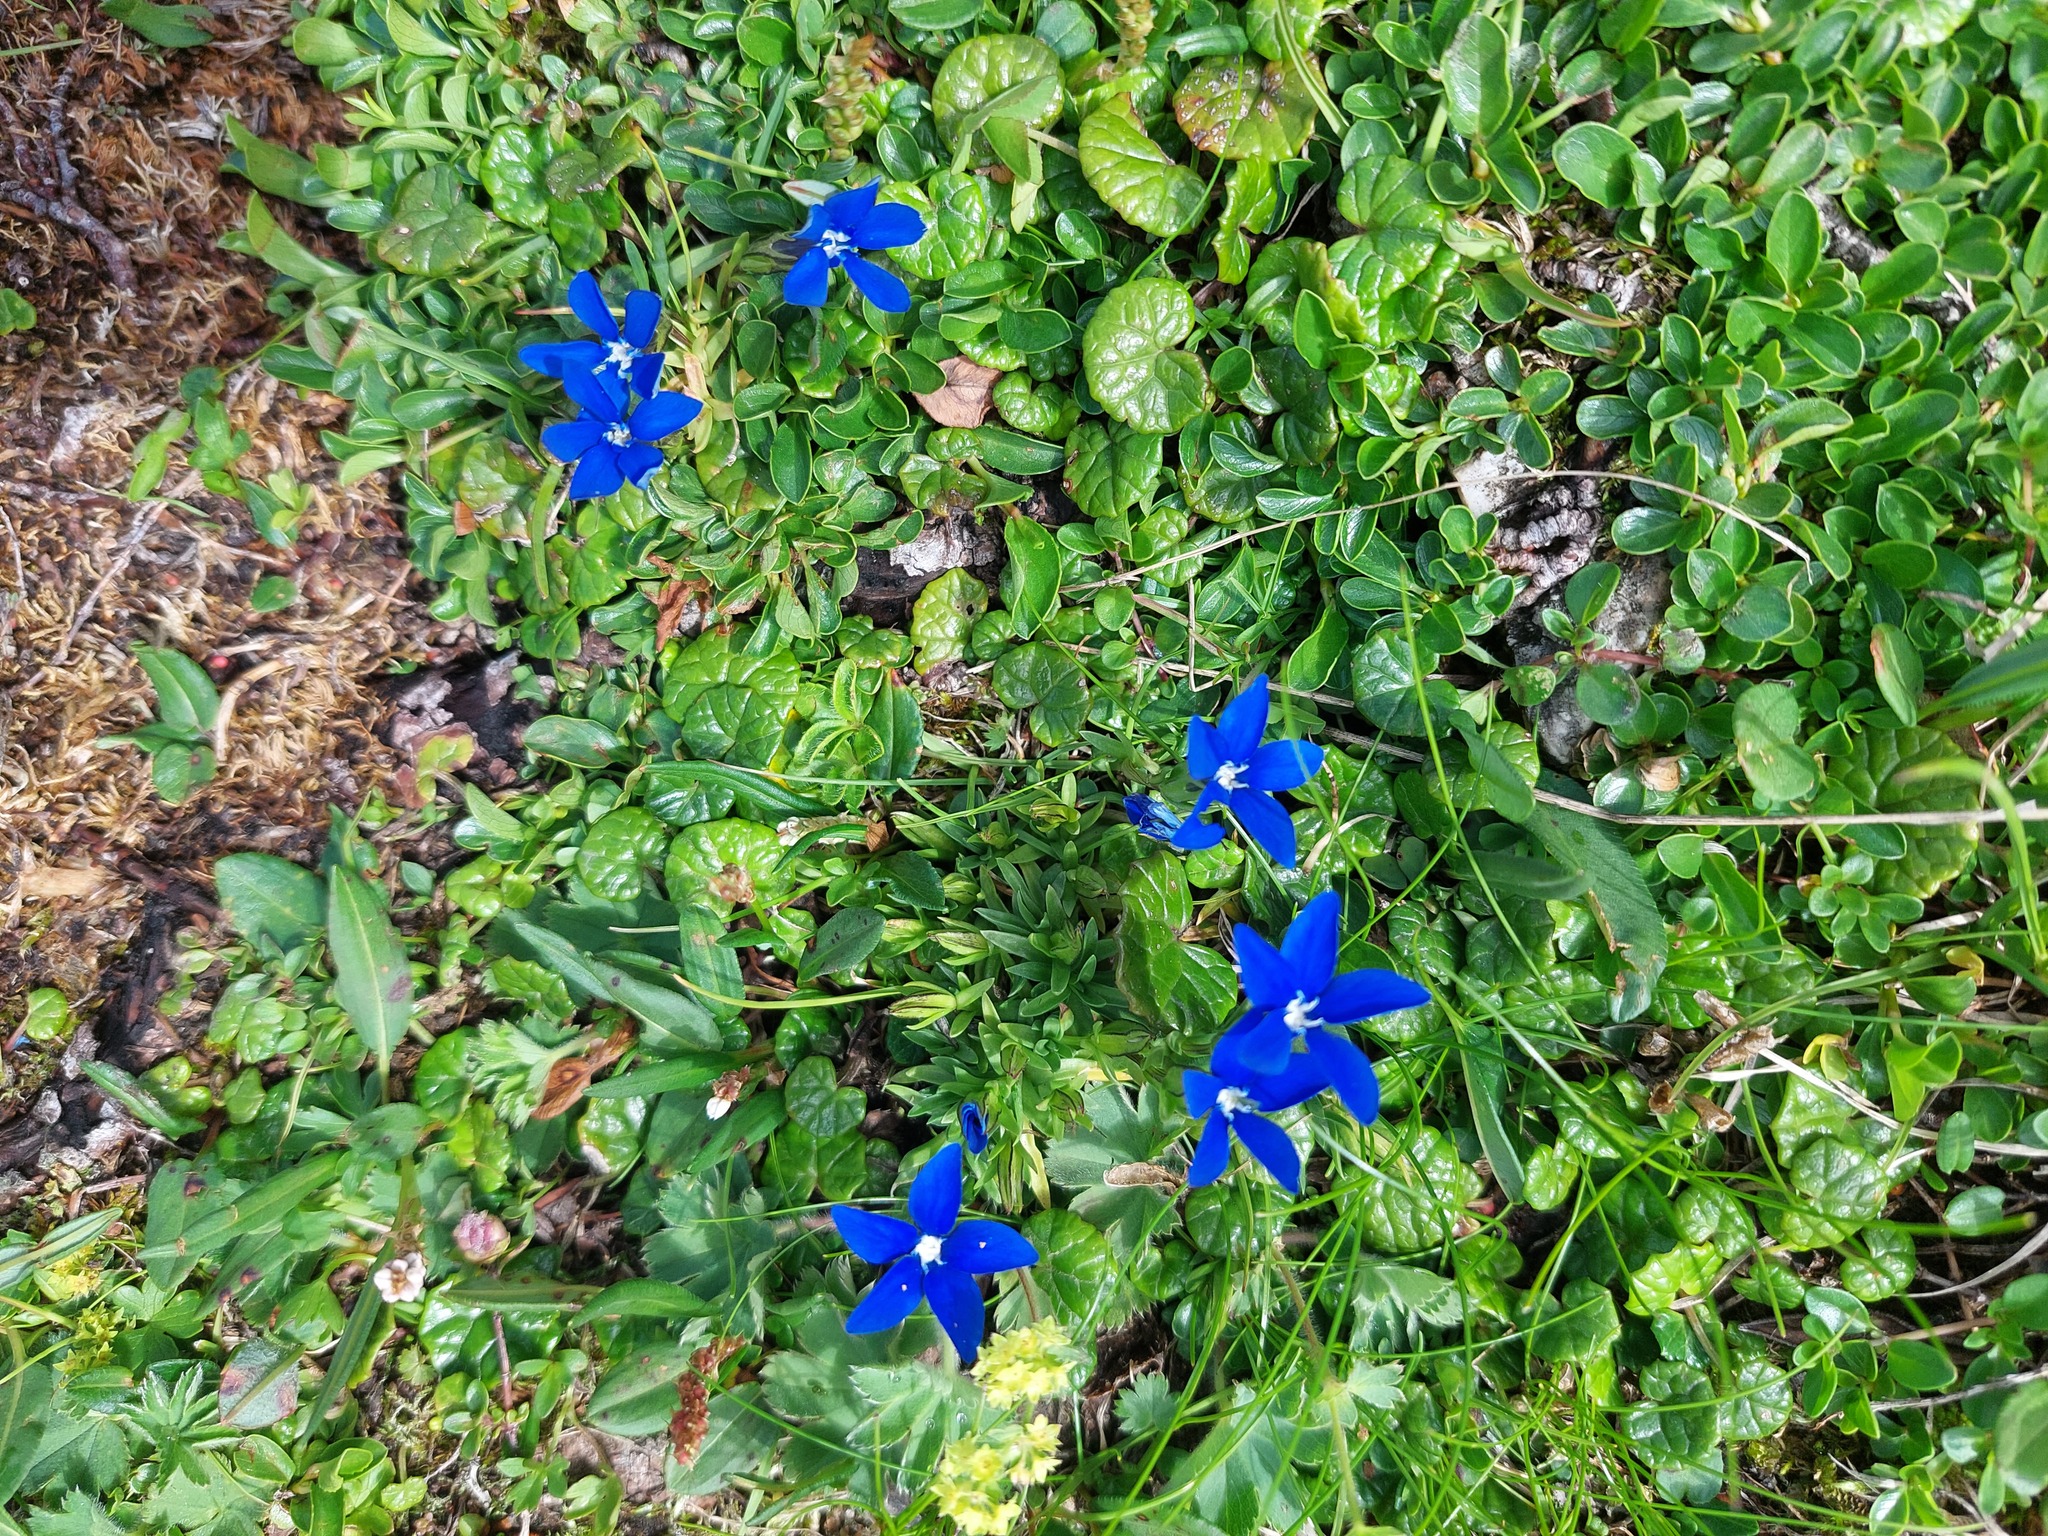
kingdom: Plantae
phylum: Tracheophyta
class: Magnoliopsida
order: Gentianales
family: Gentianaceae
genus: Gentiana
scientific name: Gentiana pumila
